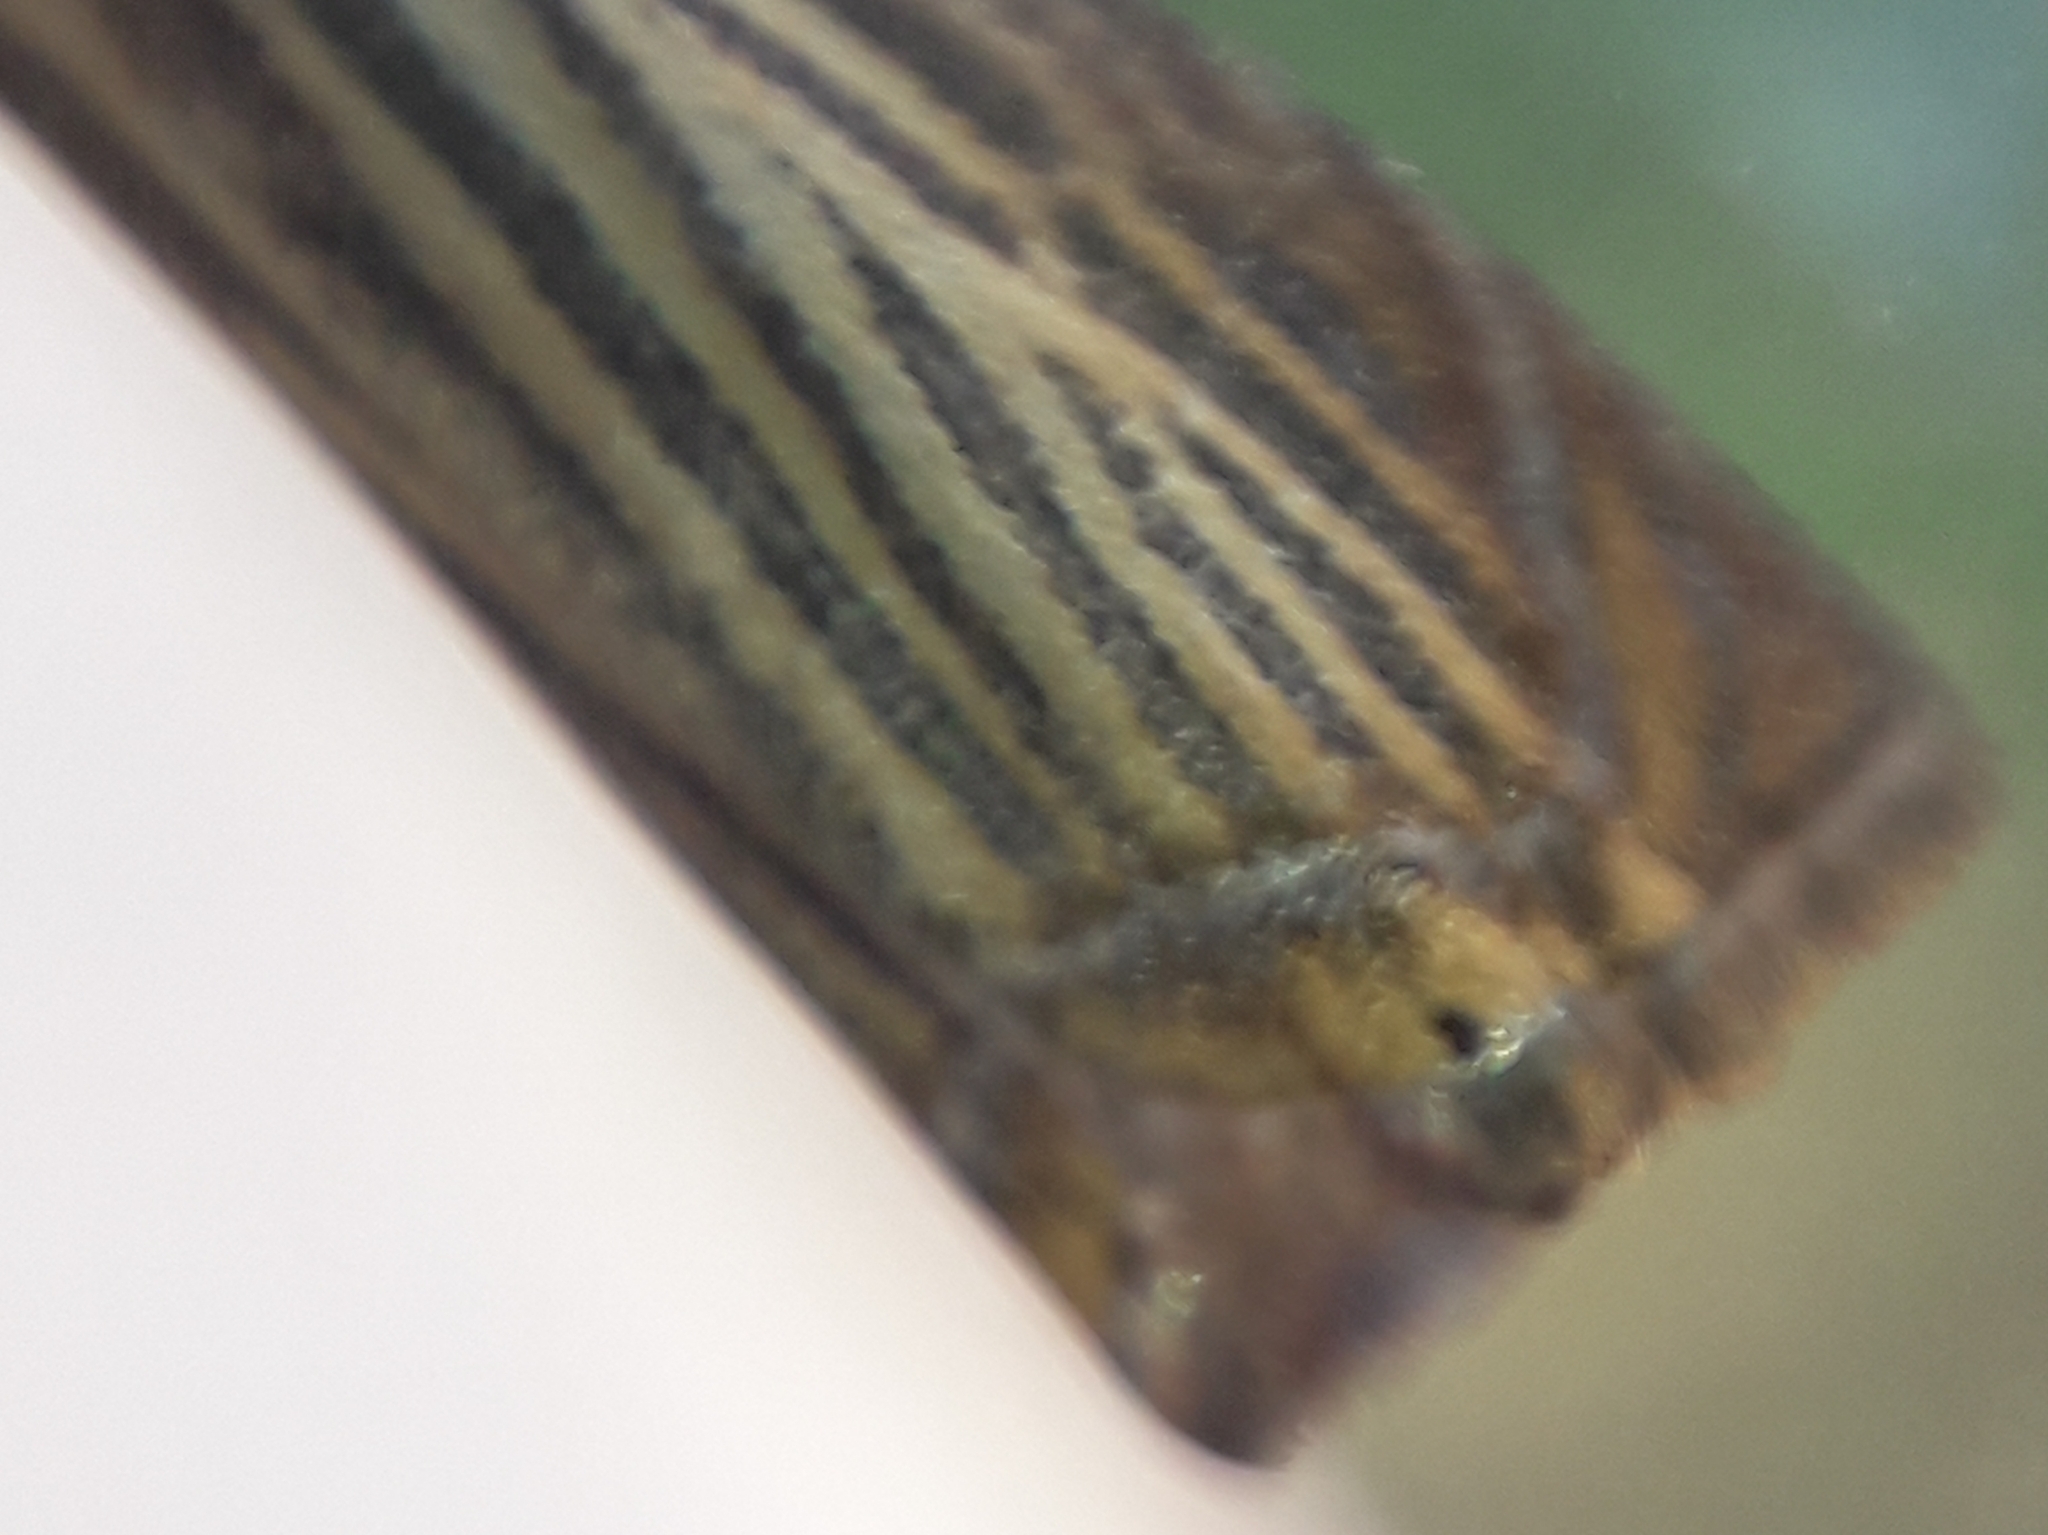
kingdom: Animalia
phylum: Arthropoda
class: Insecta
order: Lepidoptera
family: Crambidae
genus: Chrysoteuchia
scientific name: Chrysoteuchia culmella
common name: Garden grass-veneer
